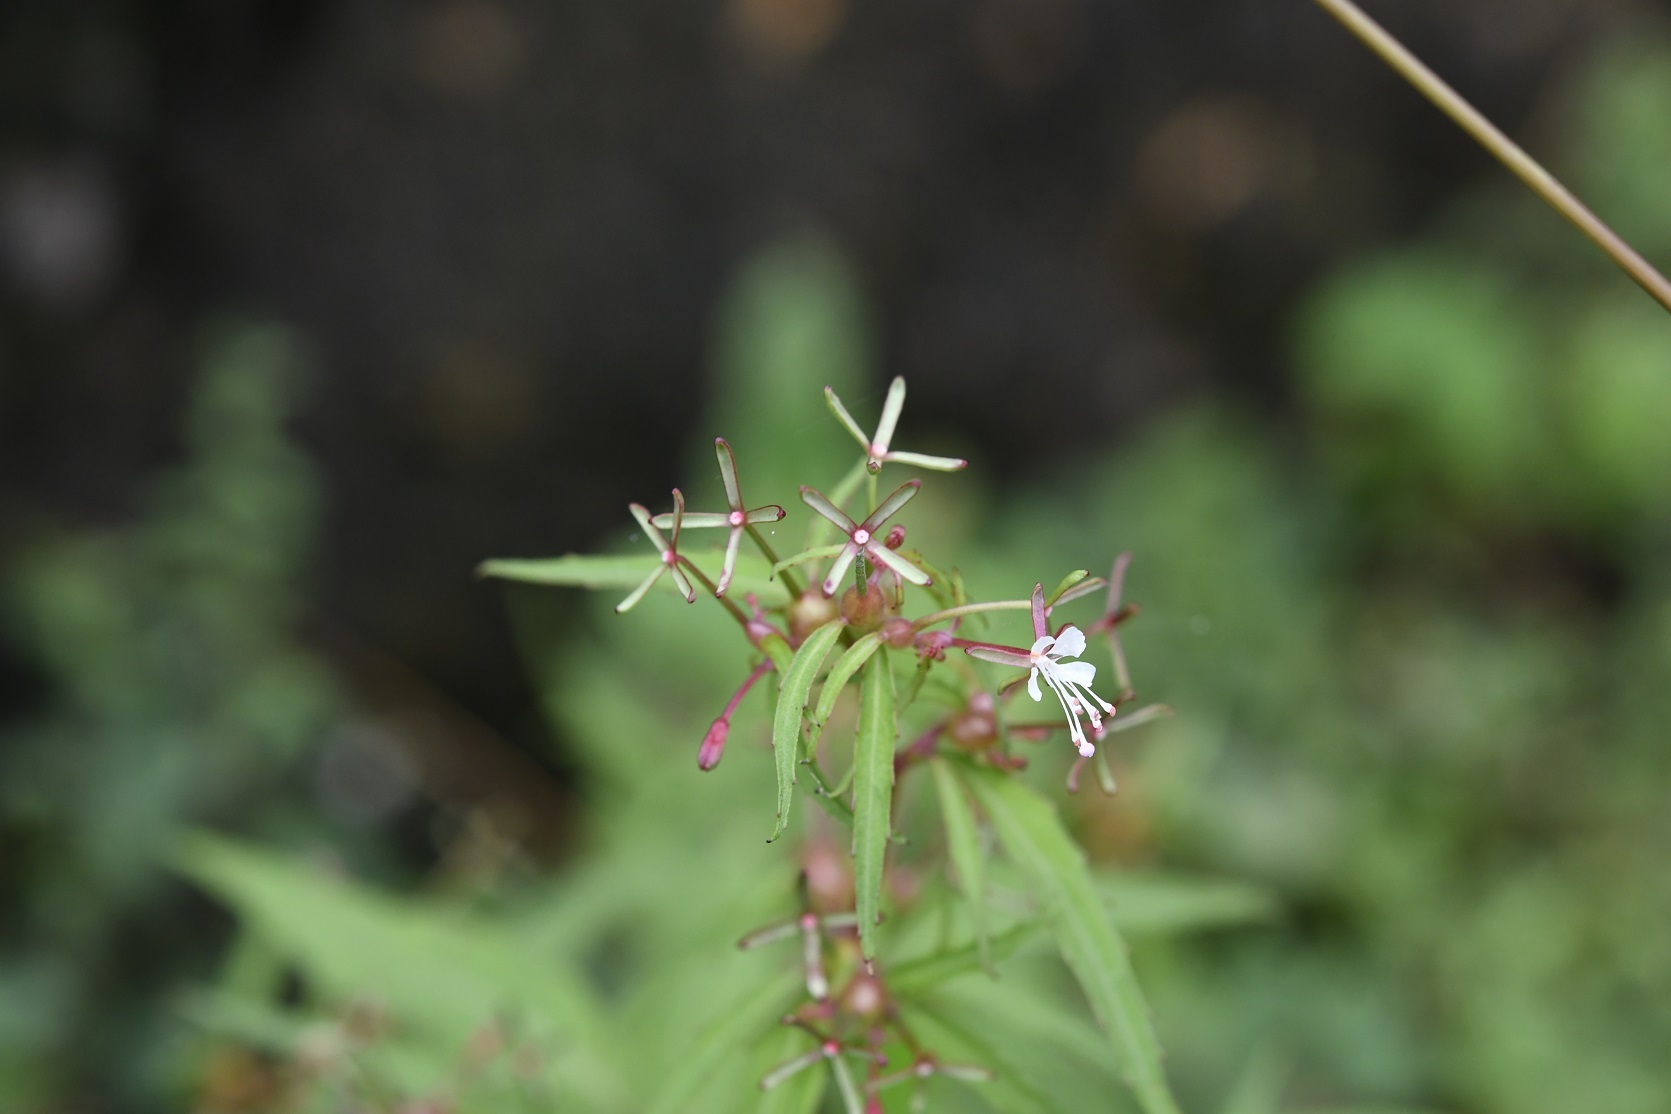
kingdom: Plantae
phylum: Tracheophyta
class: Magnoliopsida
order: Myrtales
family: Onagraceae
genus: Gongylocarpus
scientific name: Gongylocarpus rubricaulis
